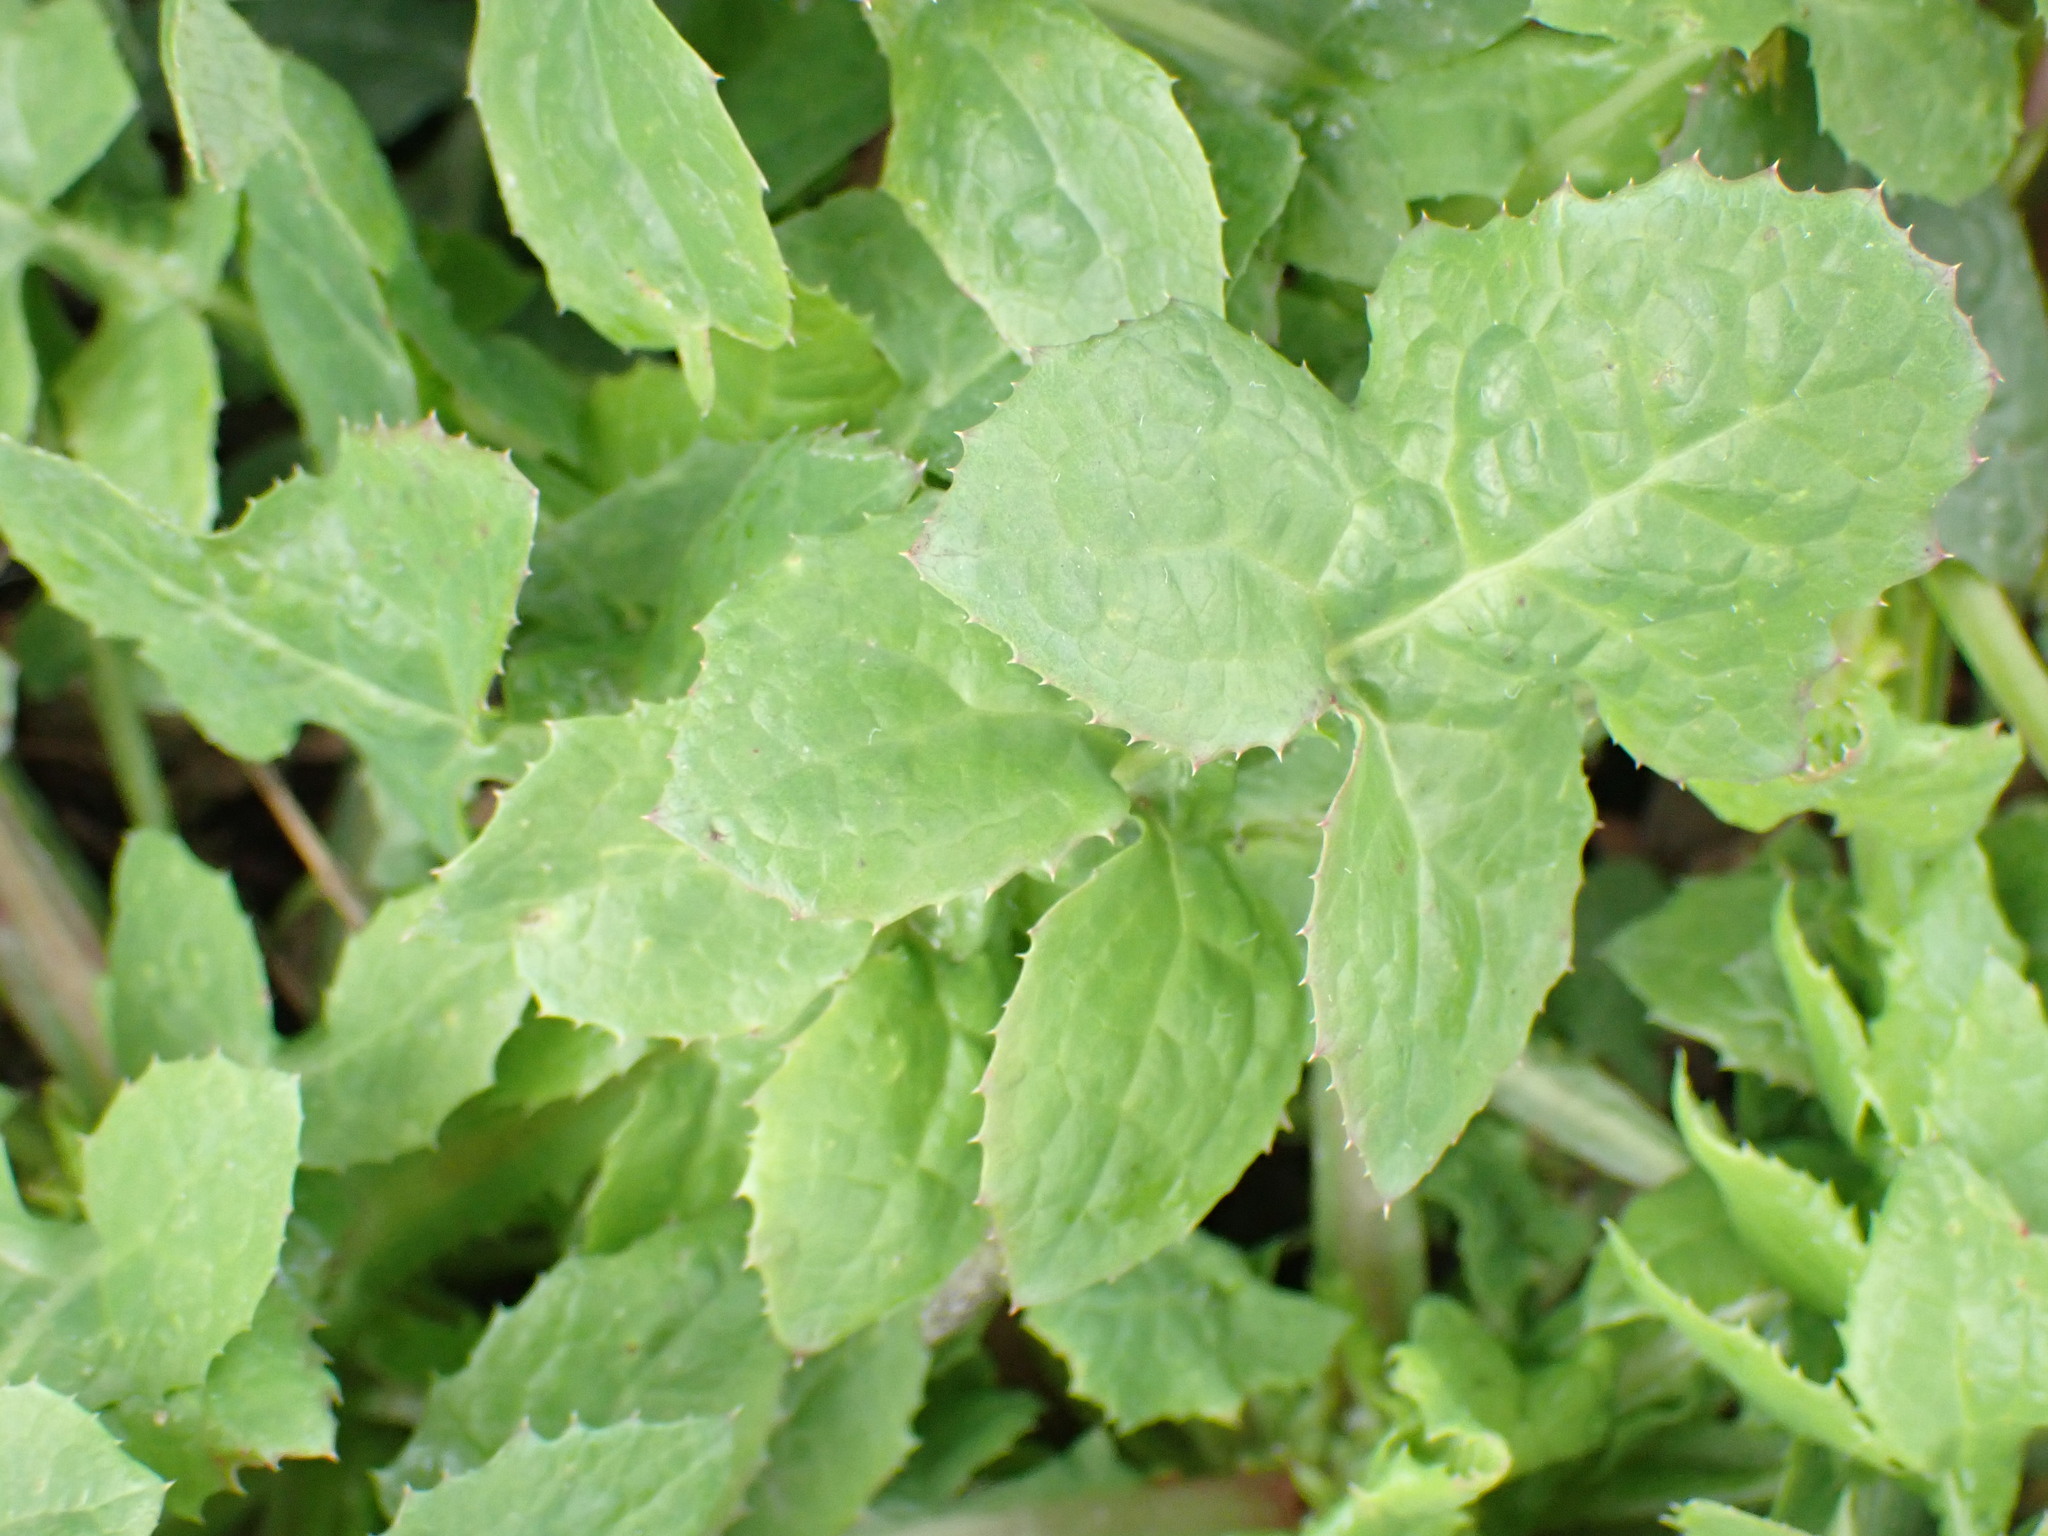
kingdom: Plantae
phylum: Tracheophyta
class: Magnoliopsida
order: Asterales
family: Asteraceae
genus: Sonchus
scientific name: Sonchus oleraceus
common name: Common sowthistle
